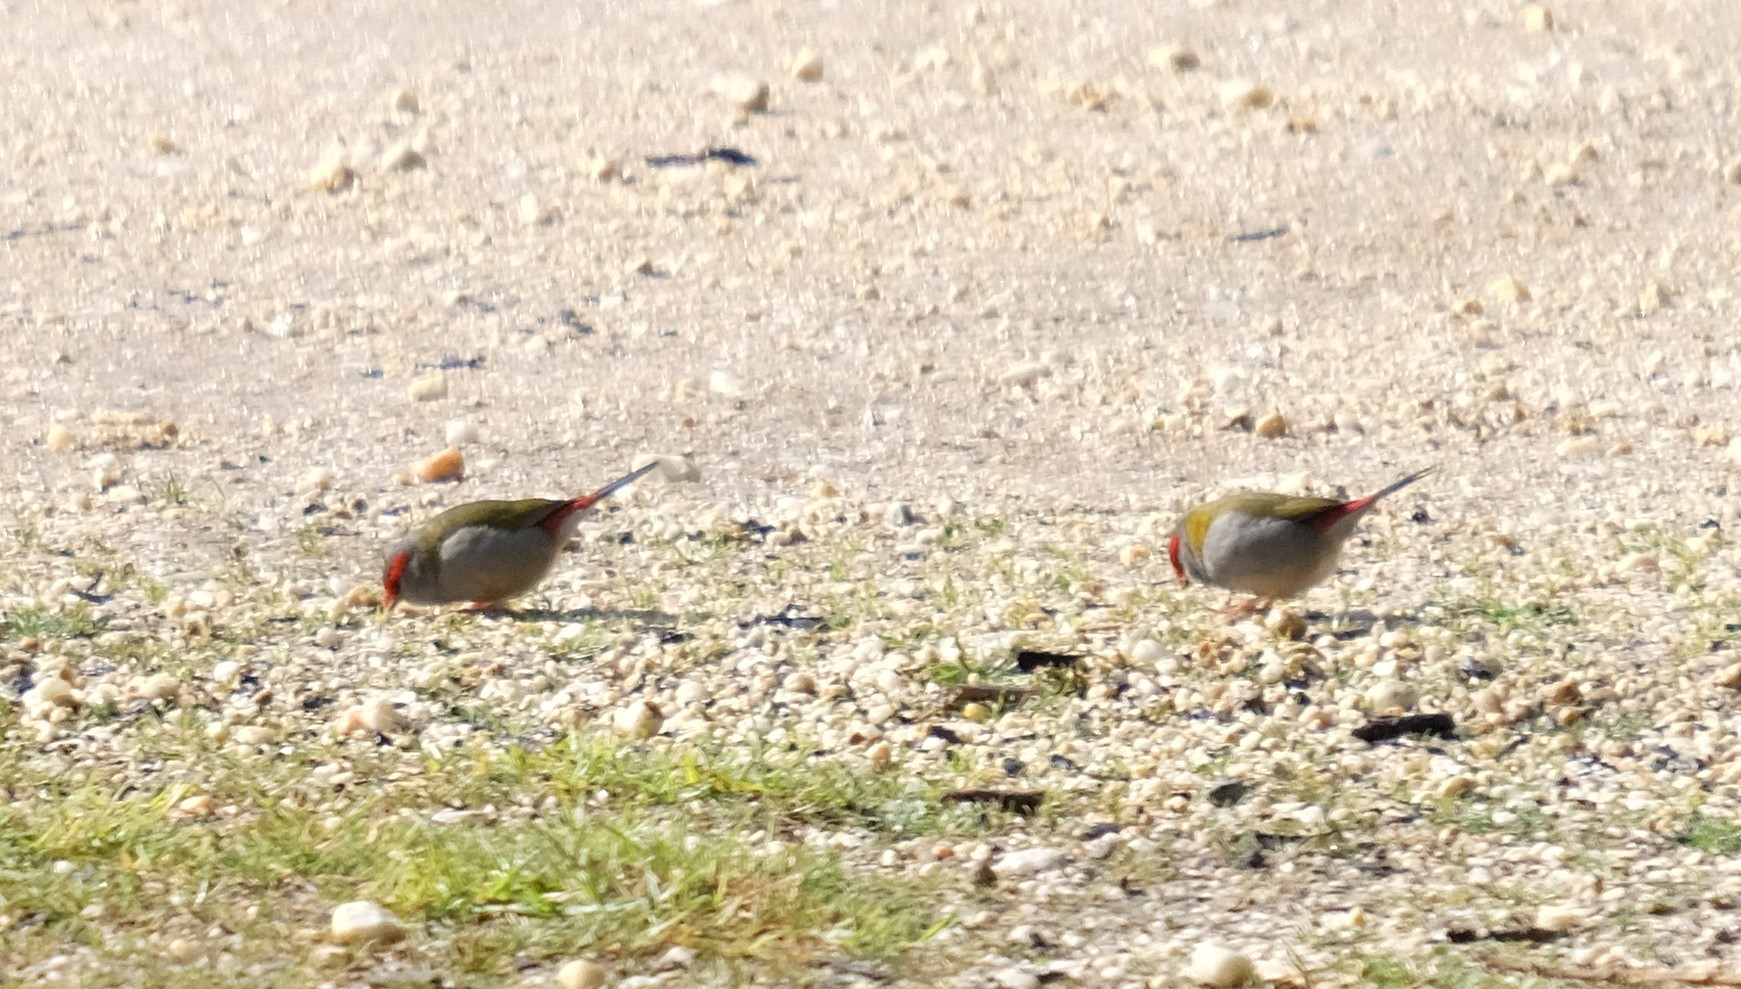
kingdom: Animalia
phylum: Chordata
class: Aves
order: Passeriformes
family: Estrildidae
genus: Neochmia
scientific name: Neochmia temporalis
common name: Red-browed finch
